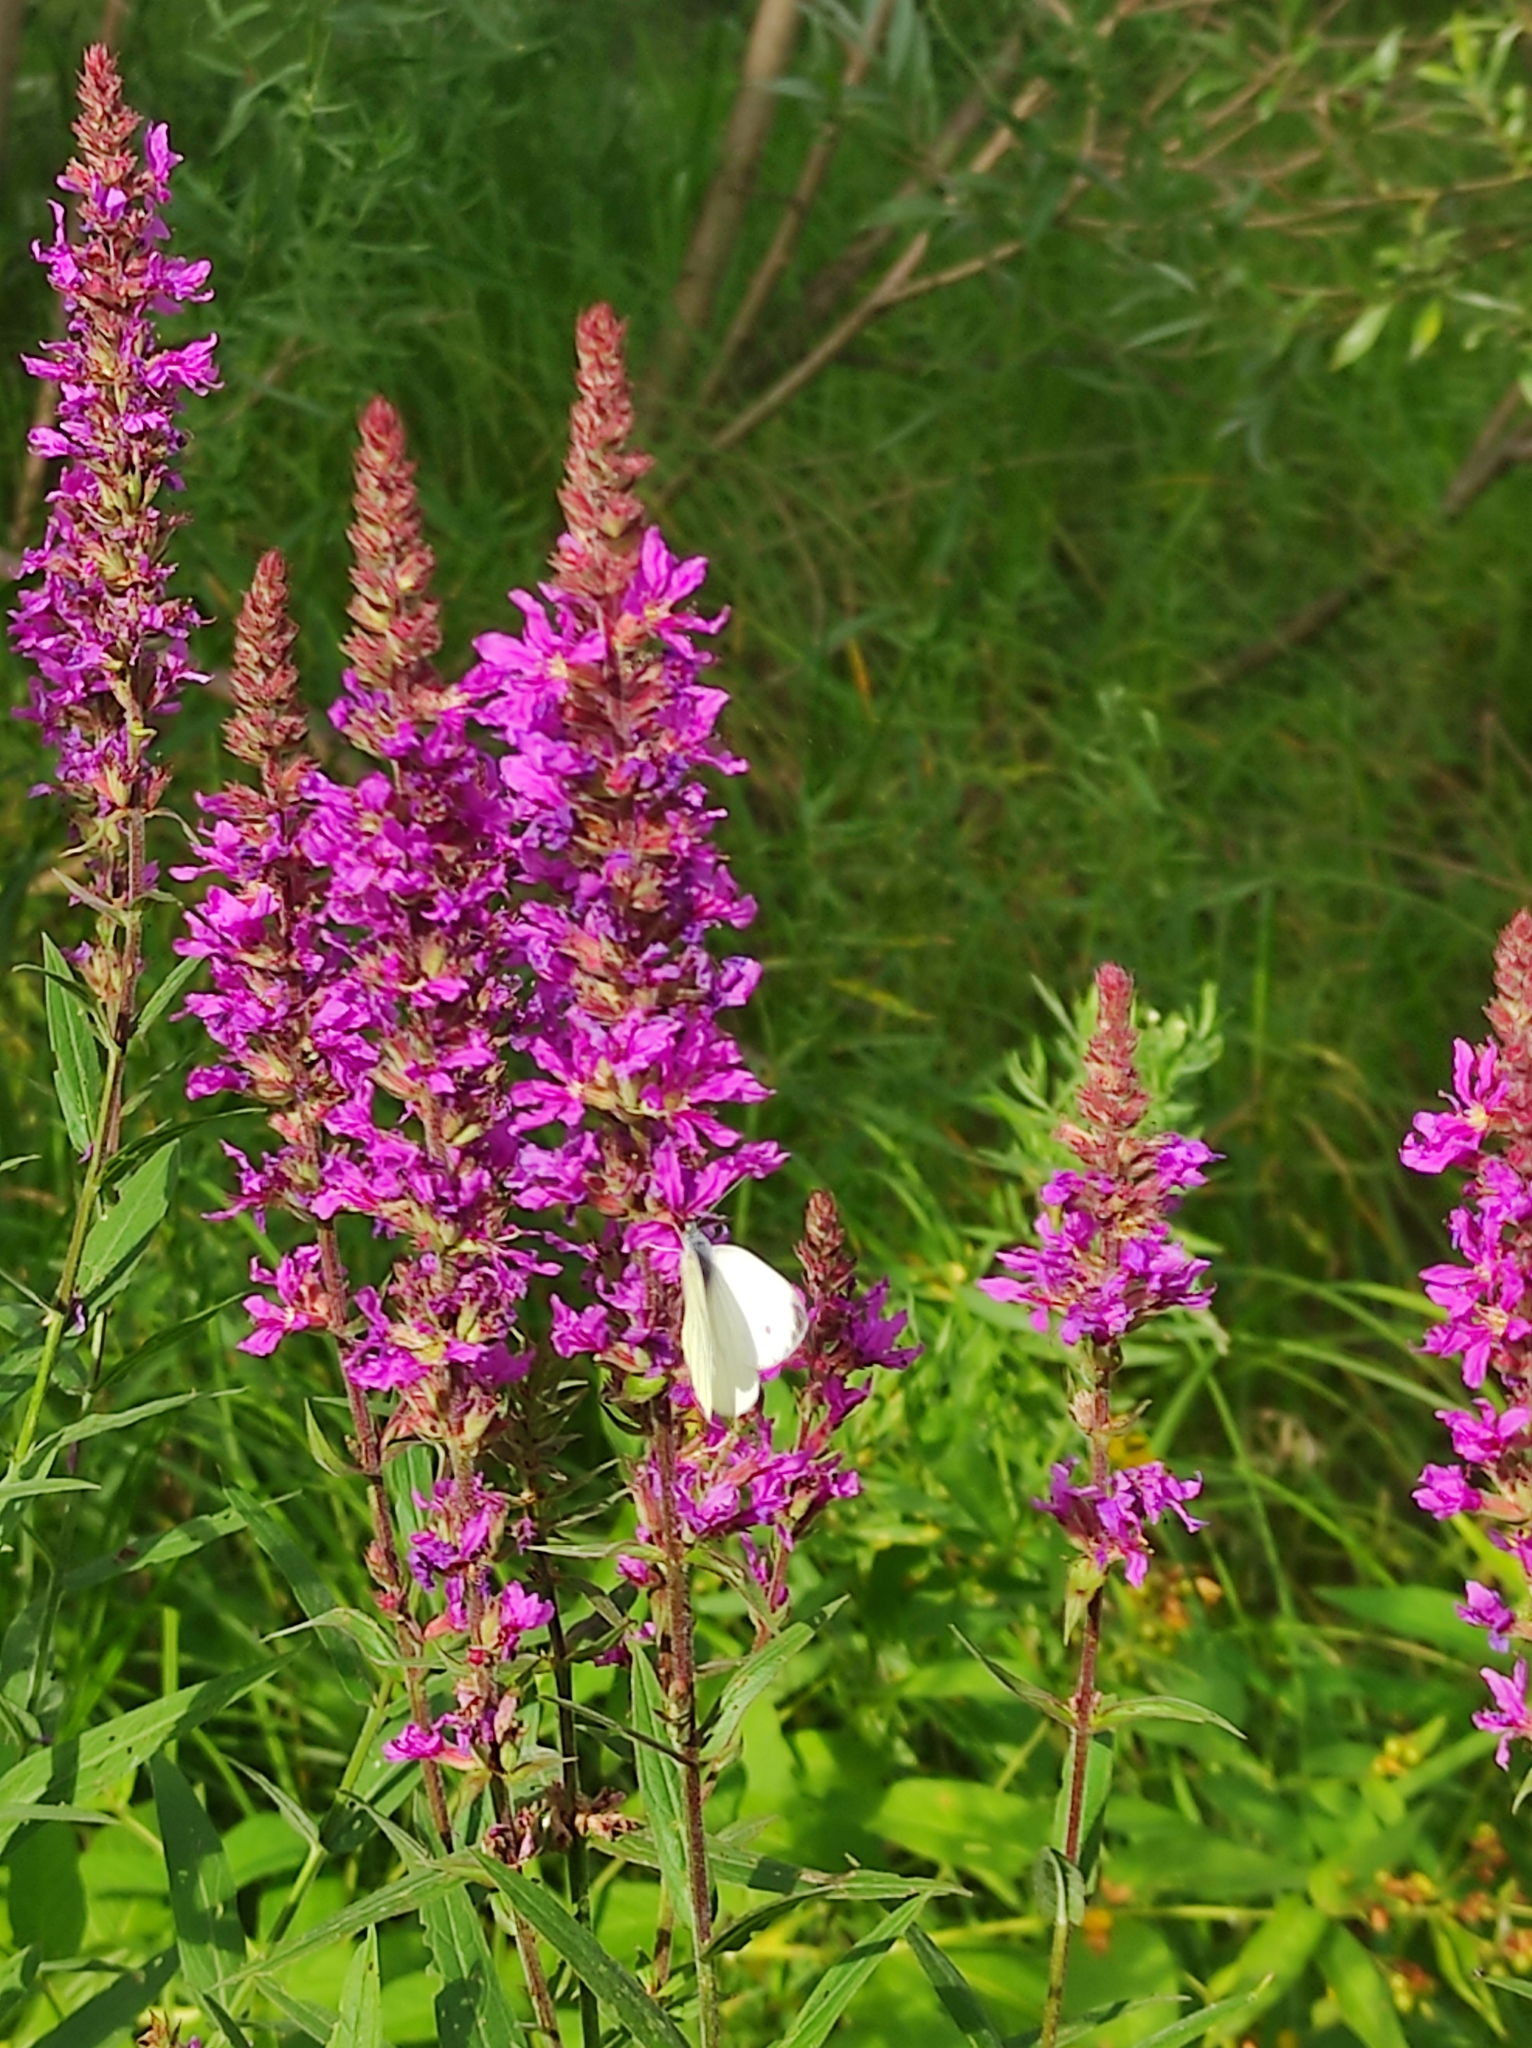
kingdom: Animalia
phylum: Arthropoda
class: Insecta
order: Lepidoptera
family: Pieridae
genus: Pieris
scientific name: Pieris napi
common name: Green-veined white
